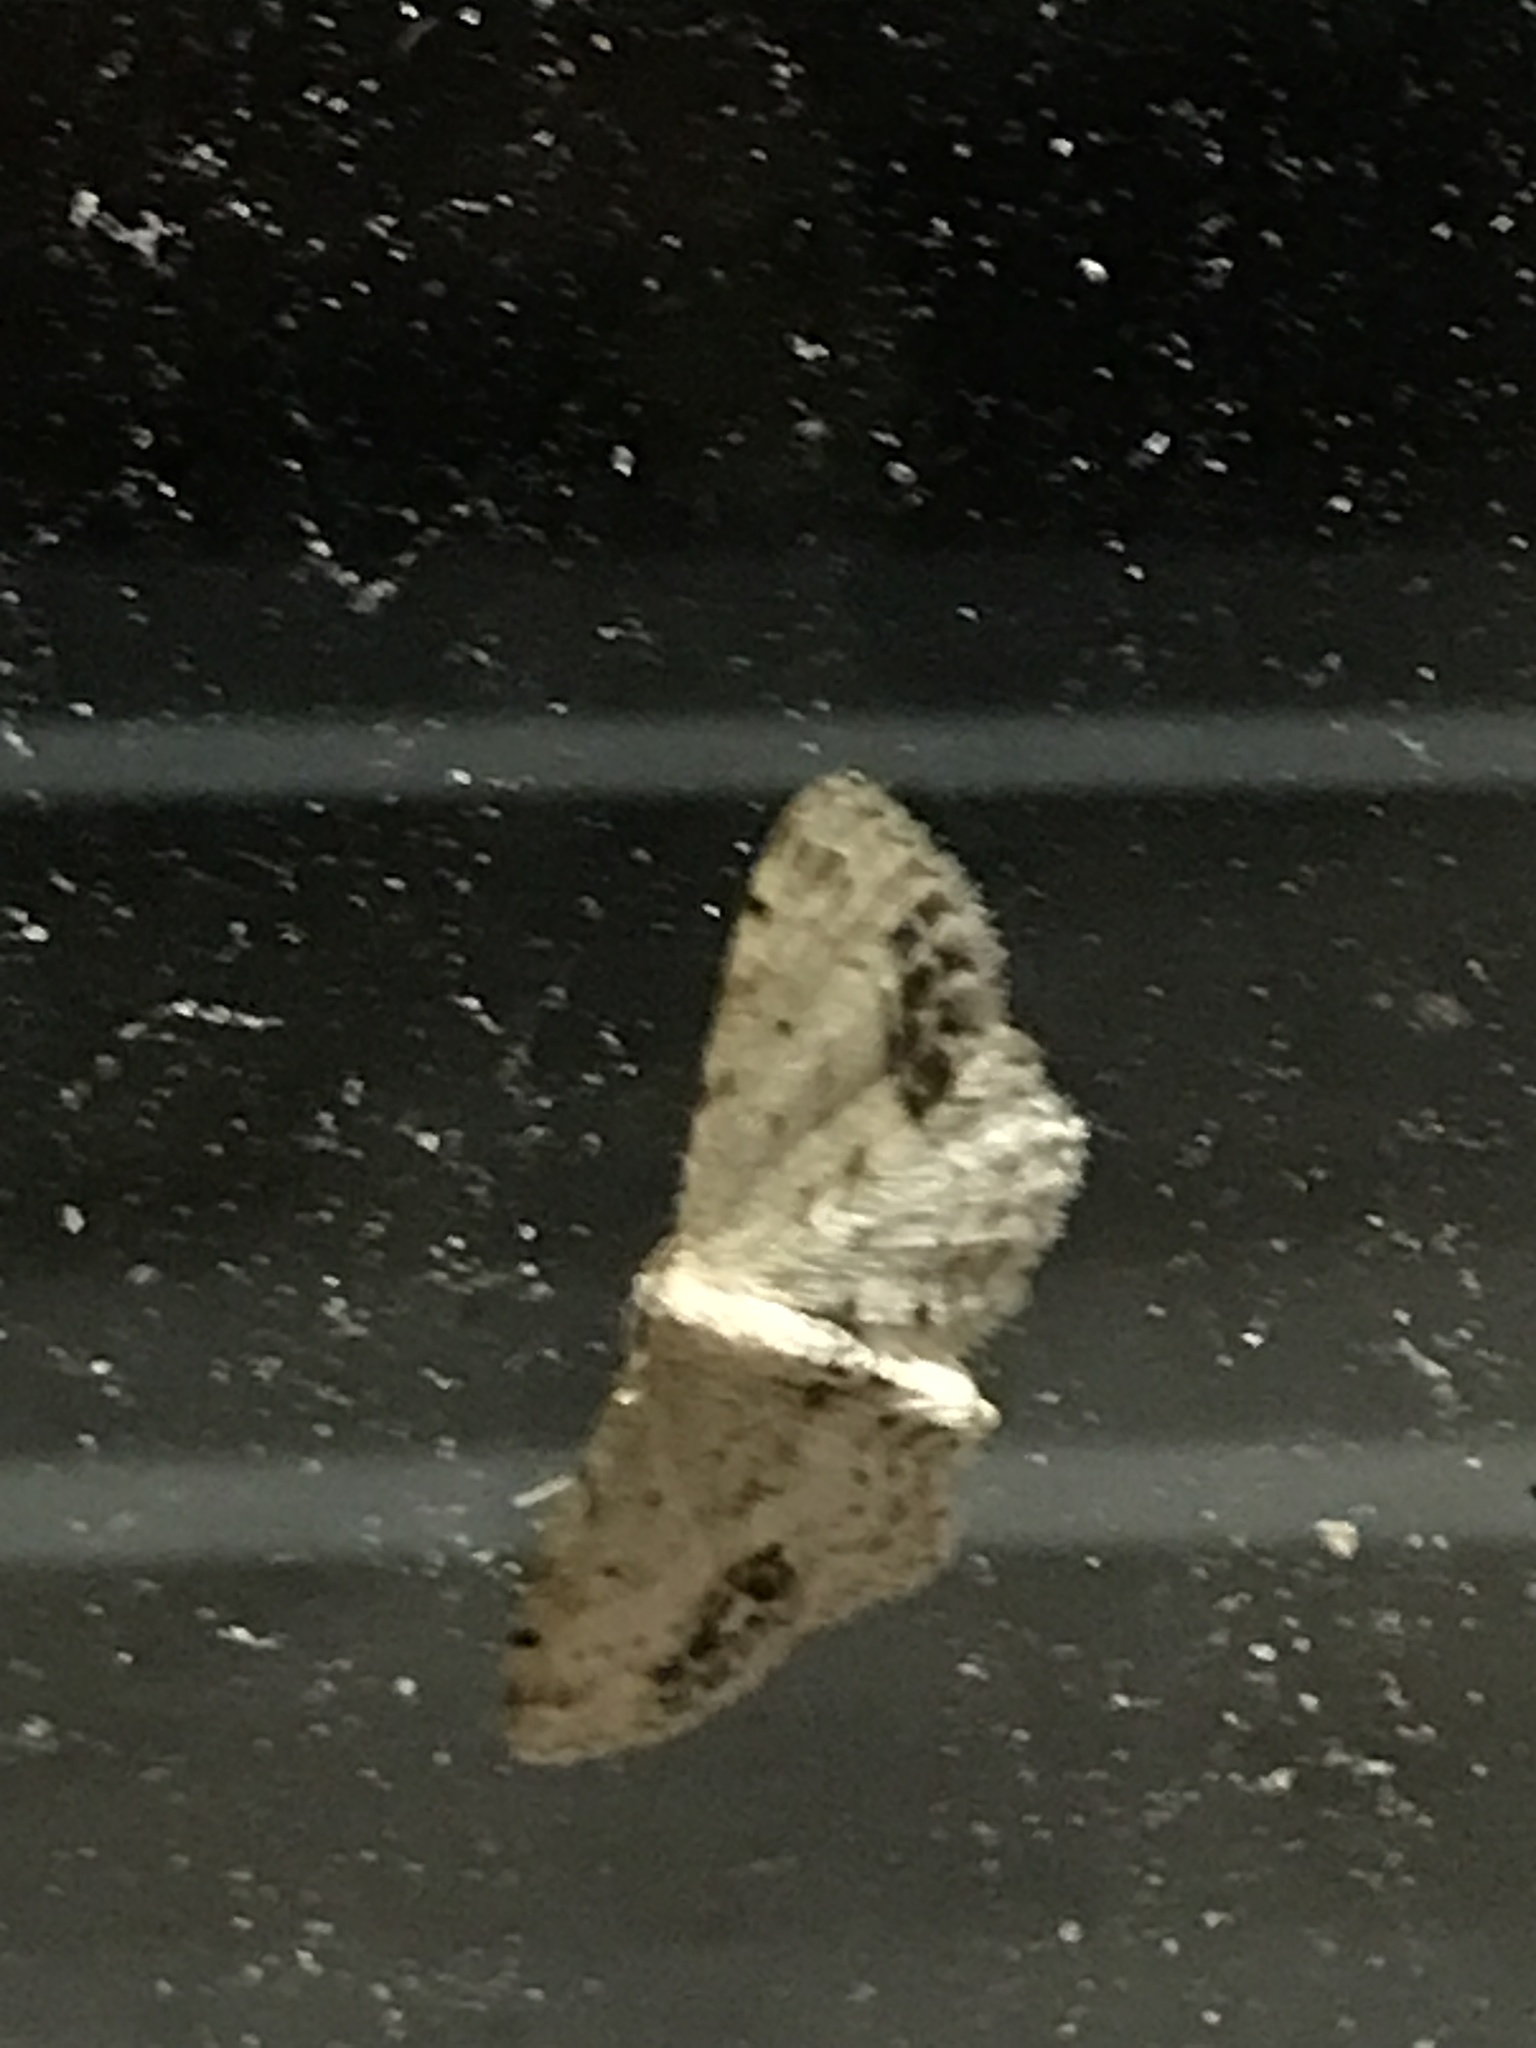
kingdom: Animalia
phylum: Arthropoda
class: Insecta
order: Lepidoptera
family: Geometridae
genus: Idaea
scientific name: Idaea dimidiata
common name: Single-dotted wave
